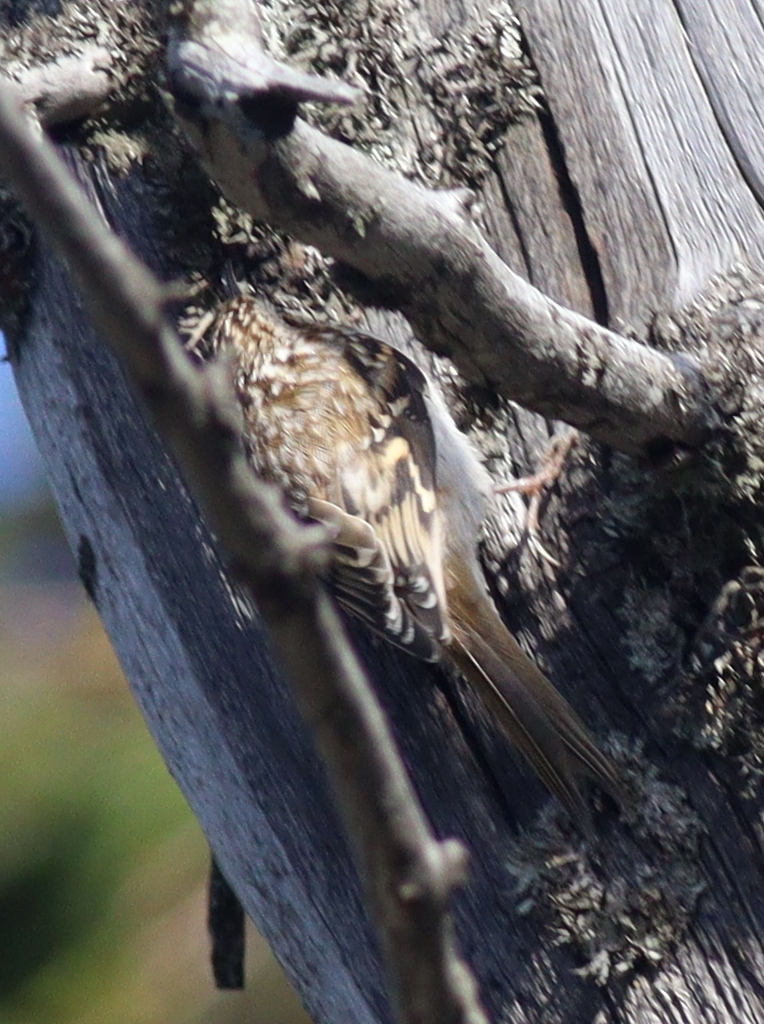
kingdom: Animalia
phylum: Chordata
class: Aves
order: Passeriformes
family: Certhiidae
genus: Certhia
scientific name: Certhia familiaris
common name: Eurasian treecreeper
